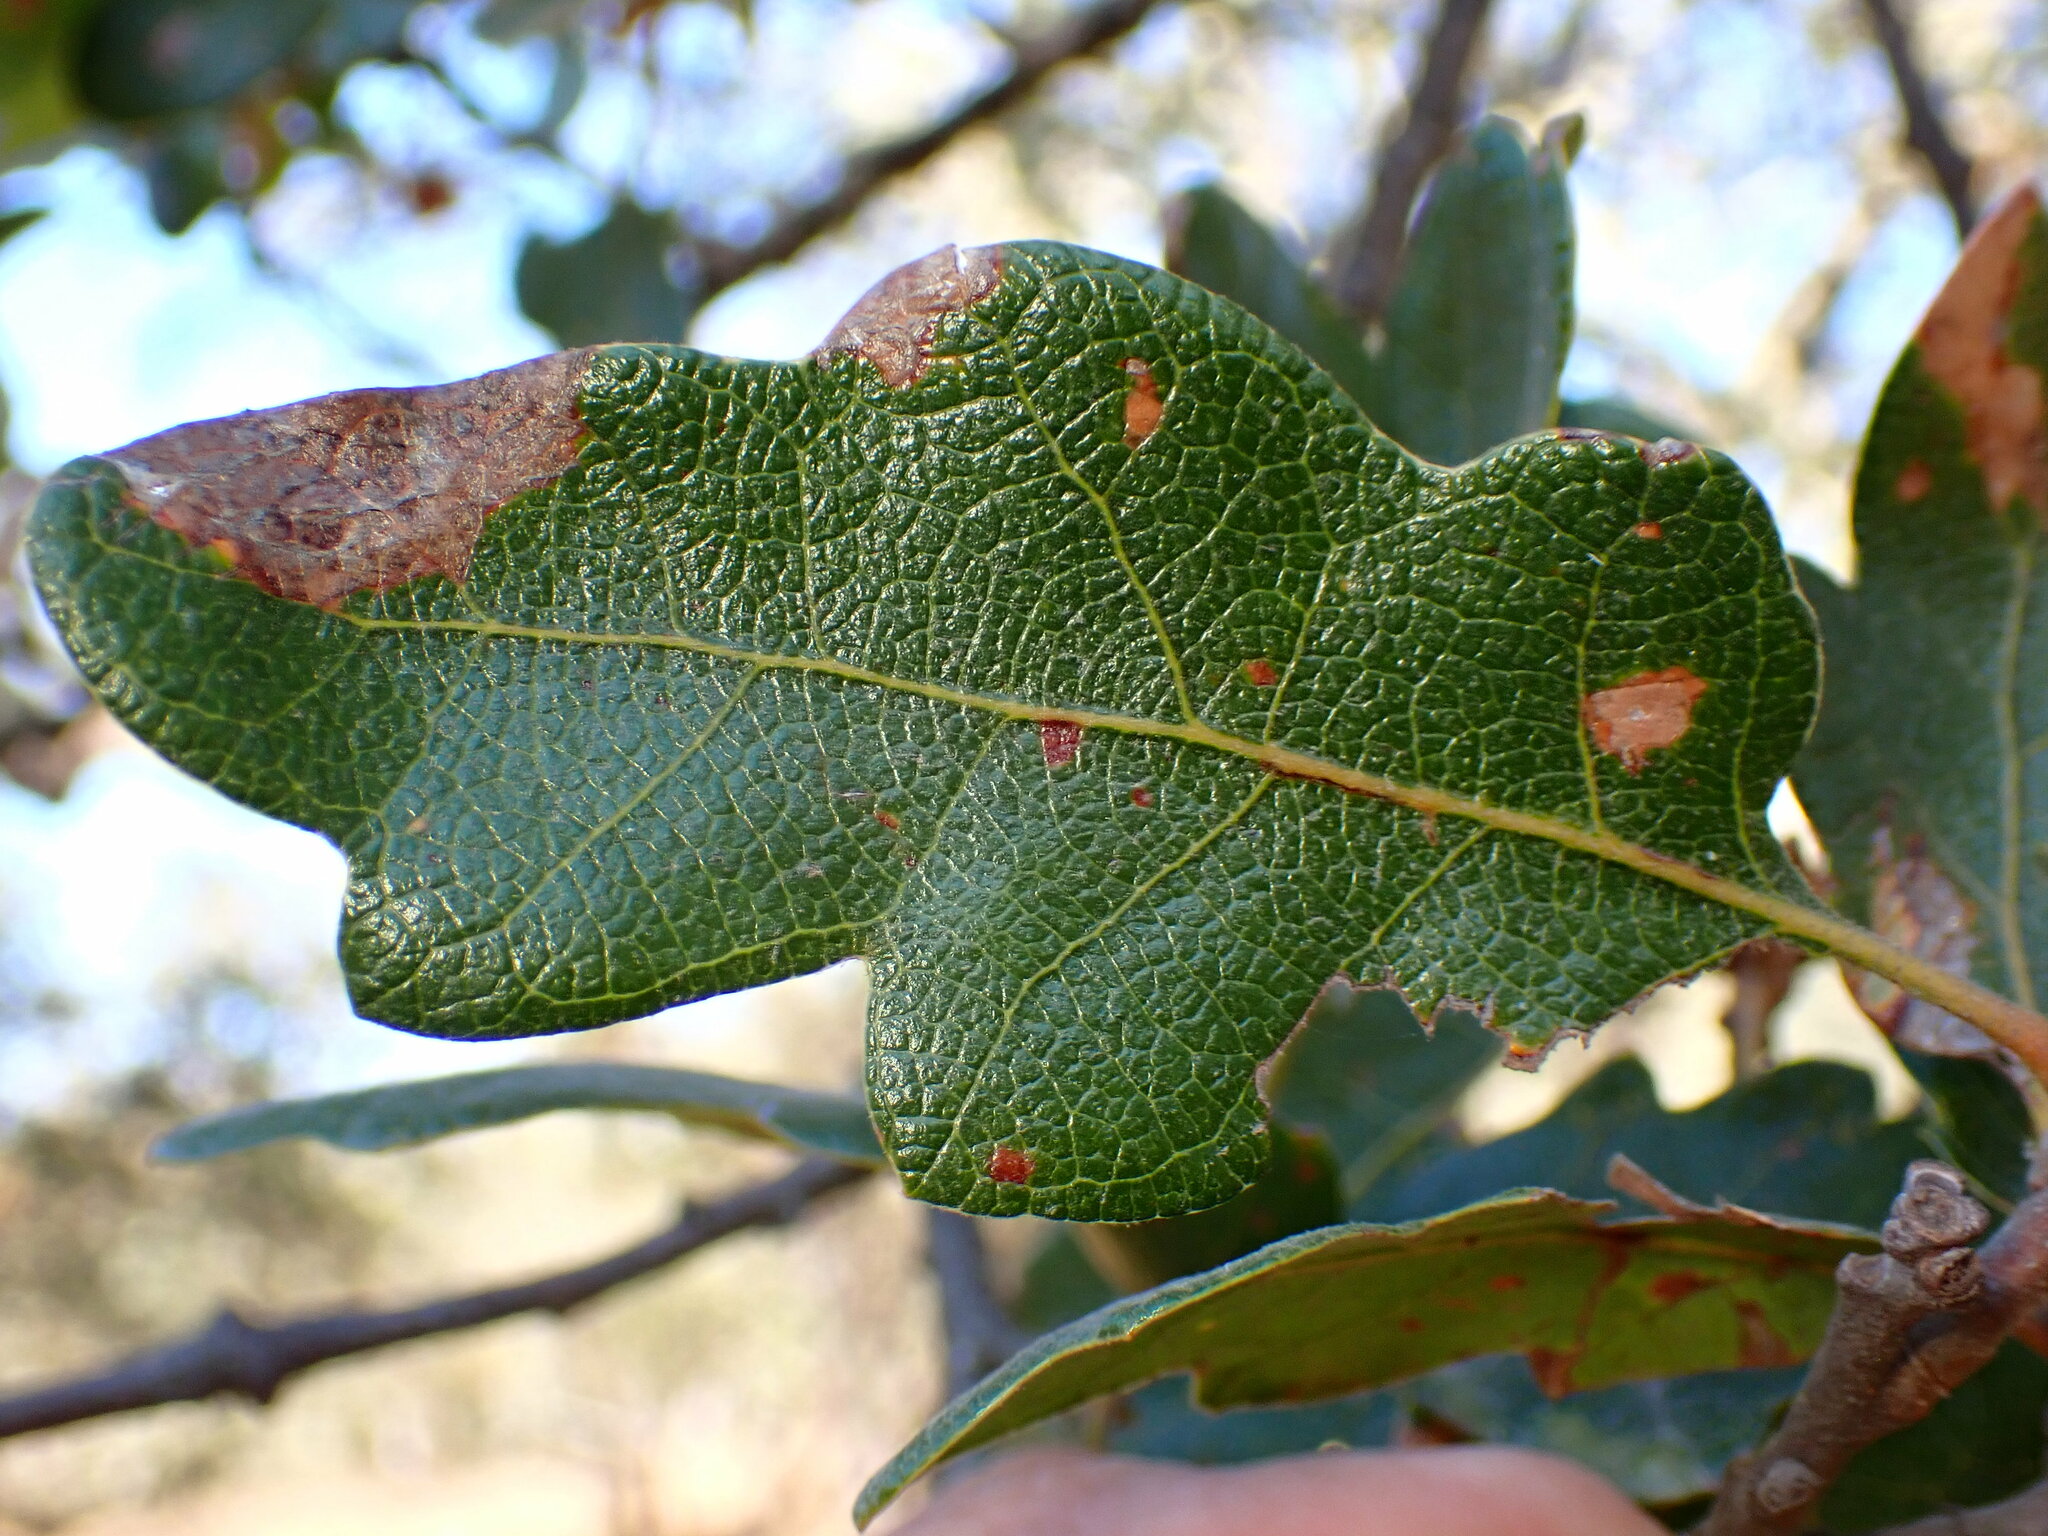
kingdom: Plantae
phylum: Tracheophyta
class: Magnoliopsida
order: Fagales
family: Fagaceae
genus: Quercus
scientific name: Quercus eplingii
